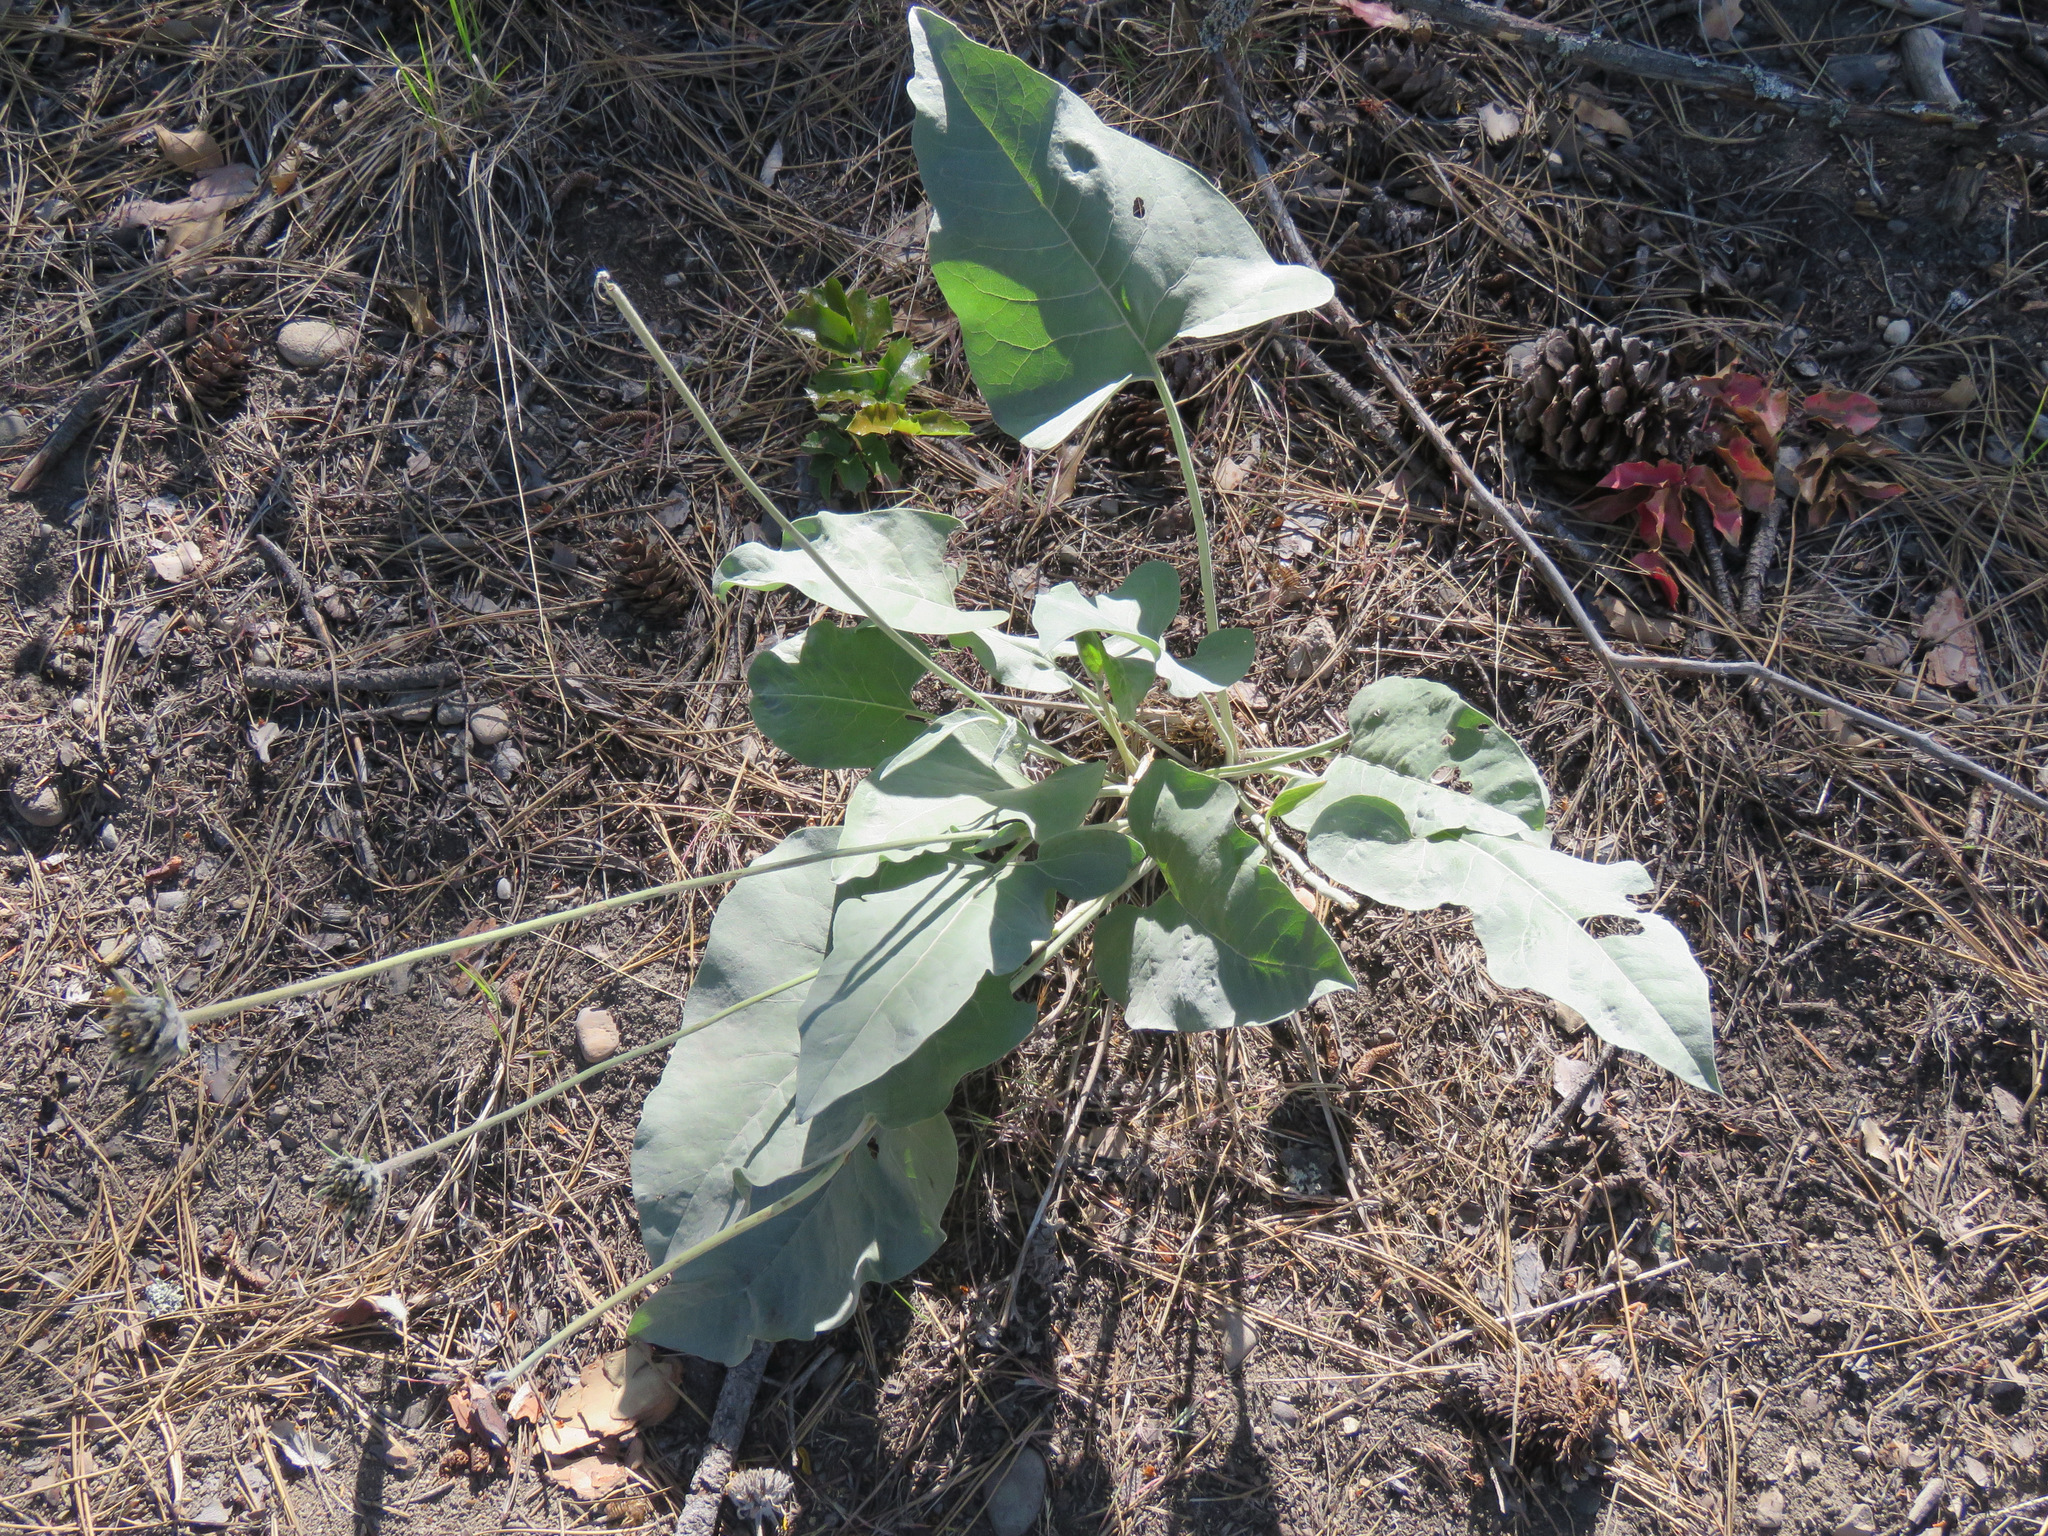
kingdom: Plantae
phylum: Tracheophyta
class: Magnoliopsida
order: Asterales
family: Asteraceae
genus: Wyethia
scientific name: Wyethia sagittata
